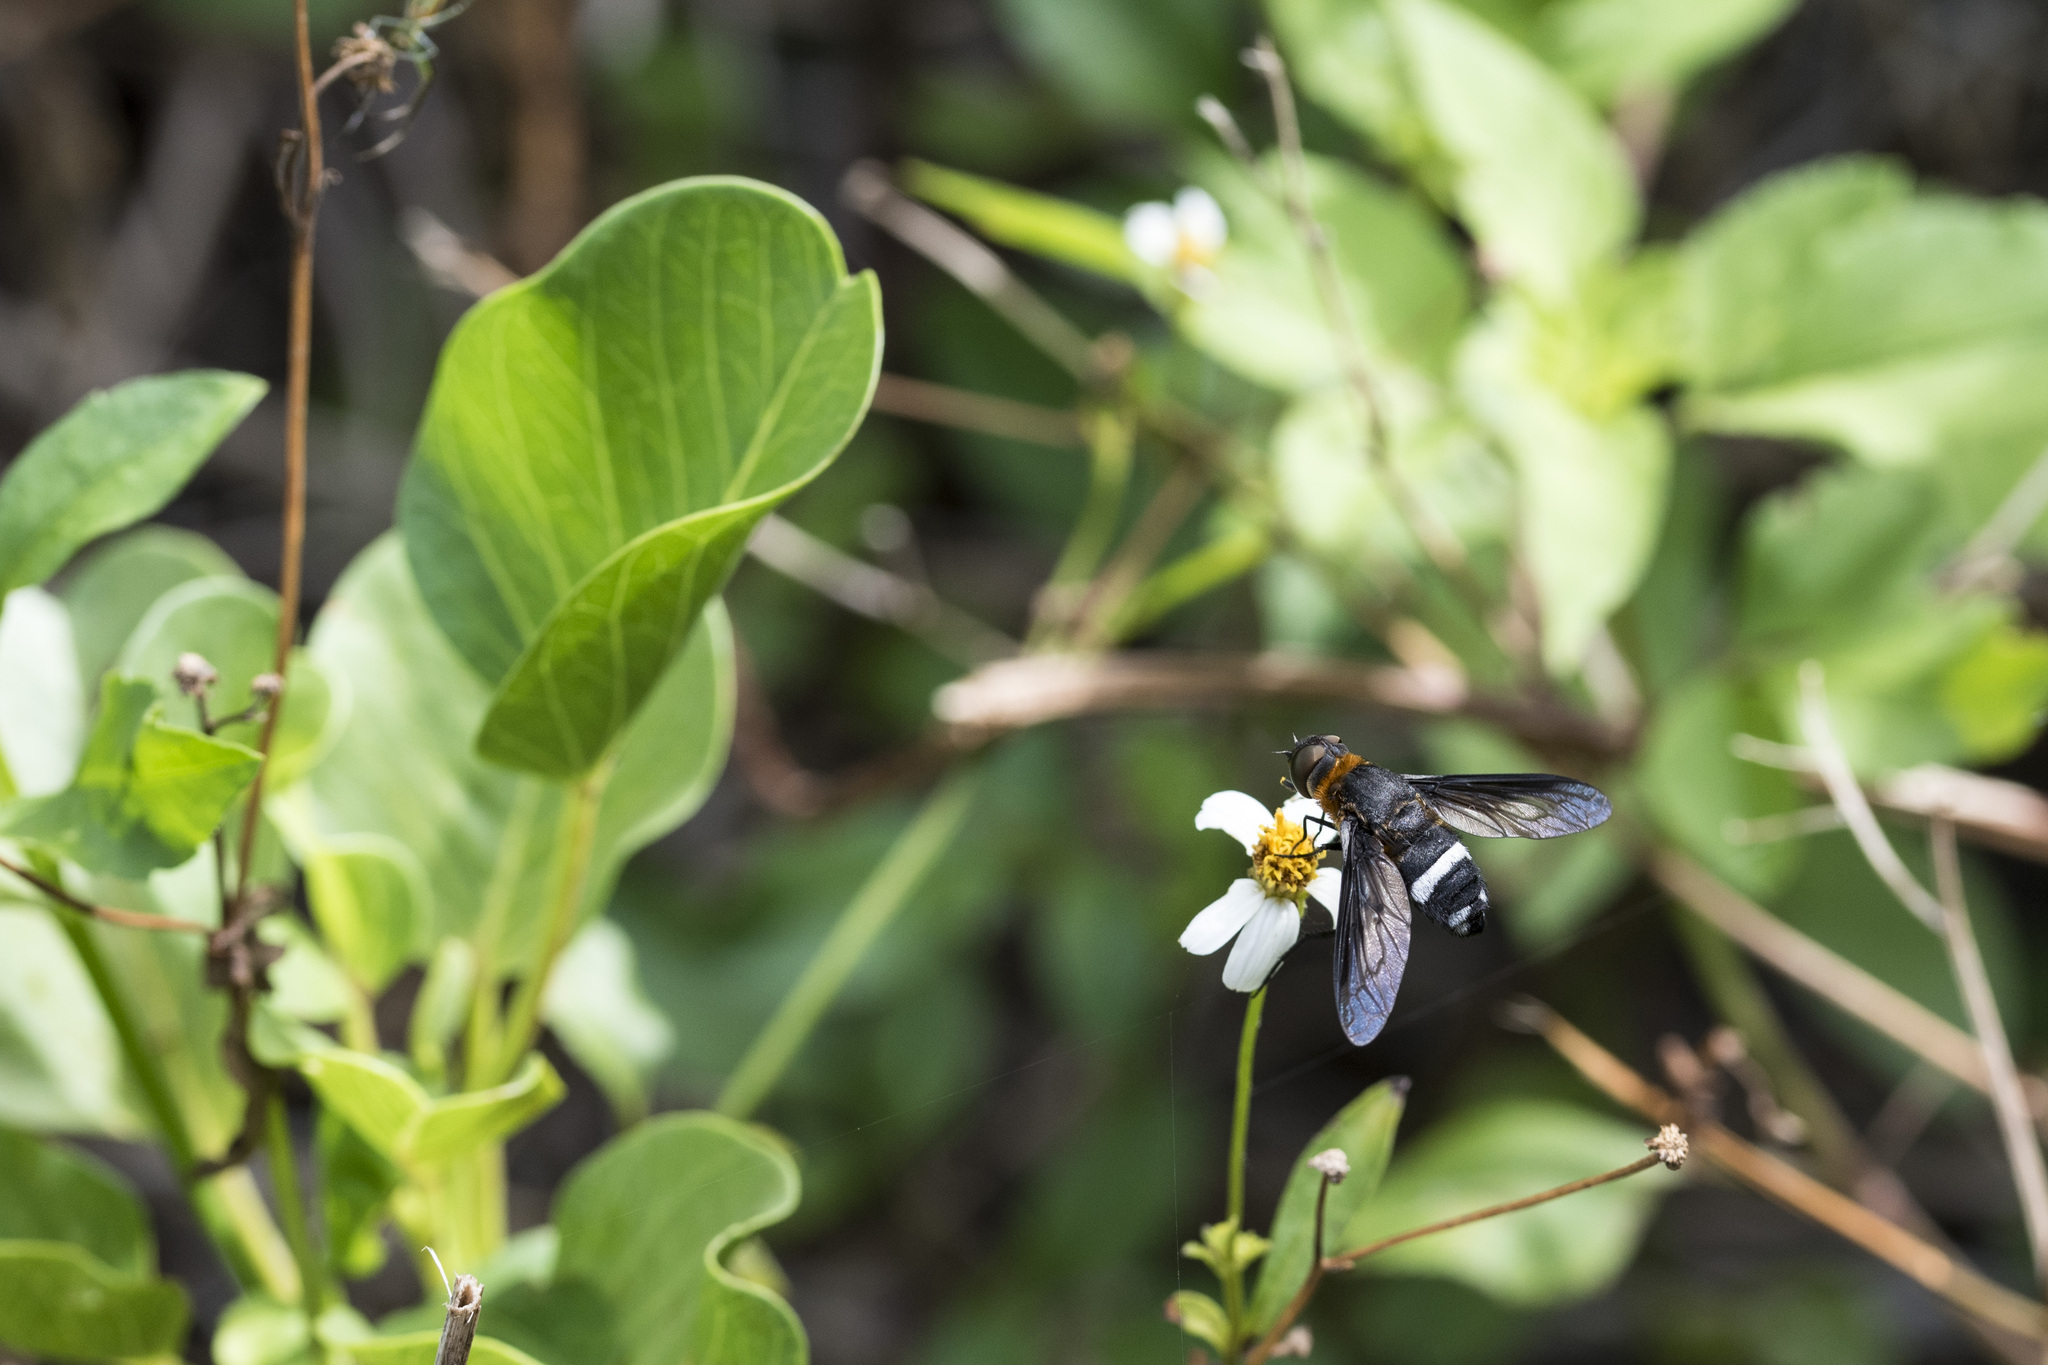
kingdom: Animalia
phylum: Arthropoda
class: Insecta
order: Diptera
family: Bombyliidae
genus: Ligyra
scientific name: Ligyra tantalus
